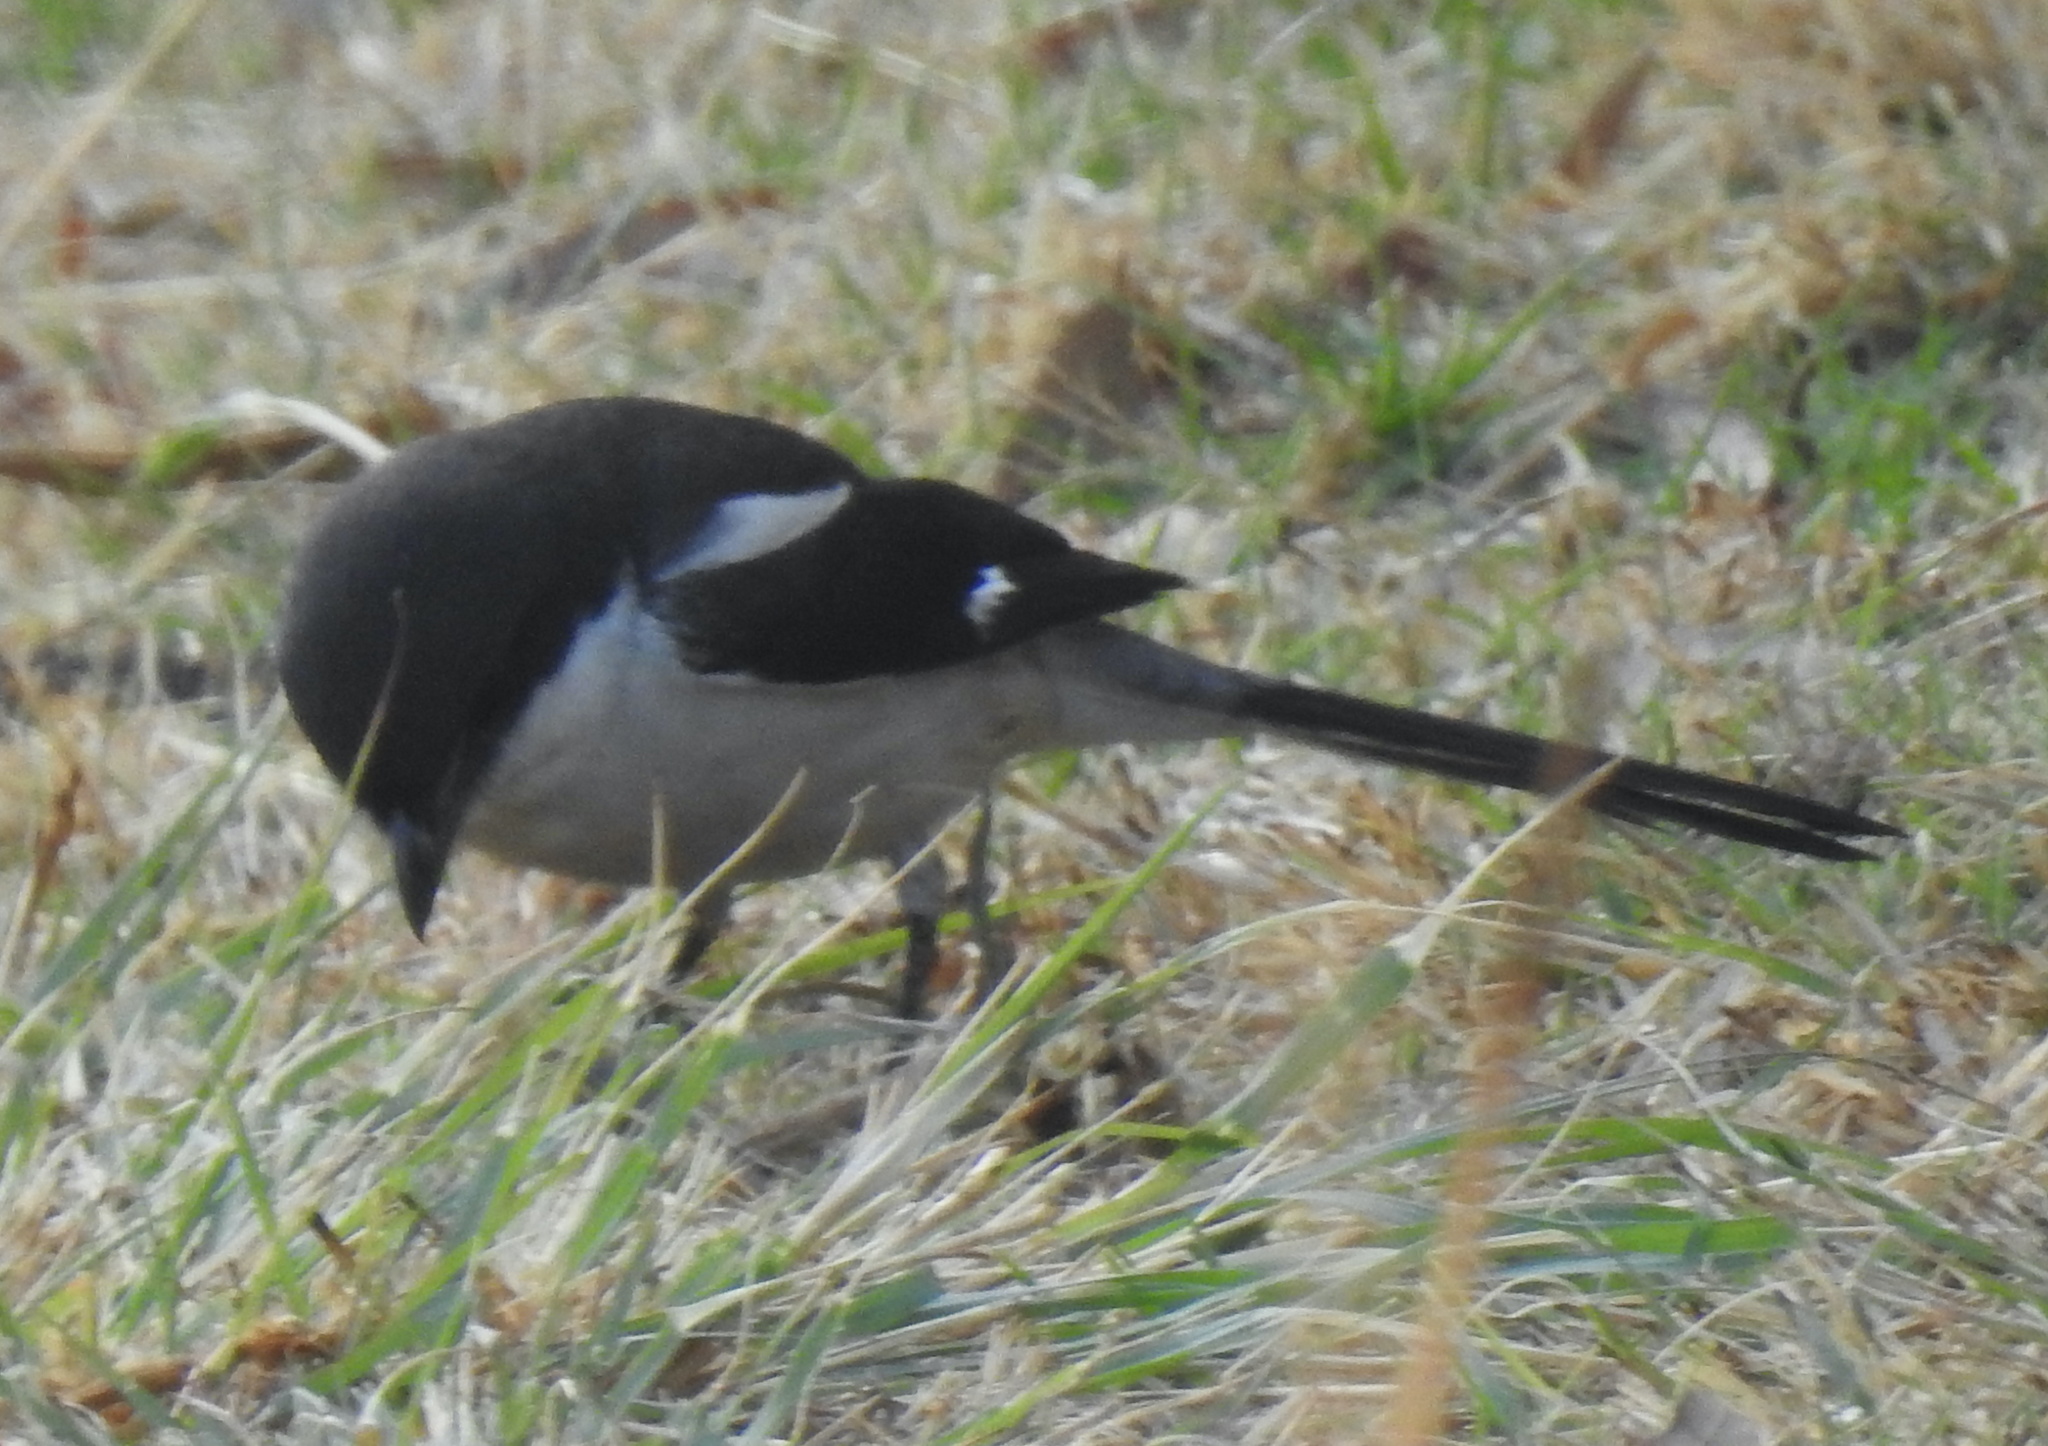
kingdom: Animalia
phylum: Chordata
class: Aves
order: Passeriformes
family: Laniidae
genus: Lanius
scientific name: Lanius collaris
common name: Southern fiscal
